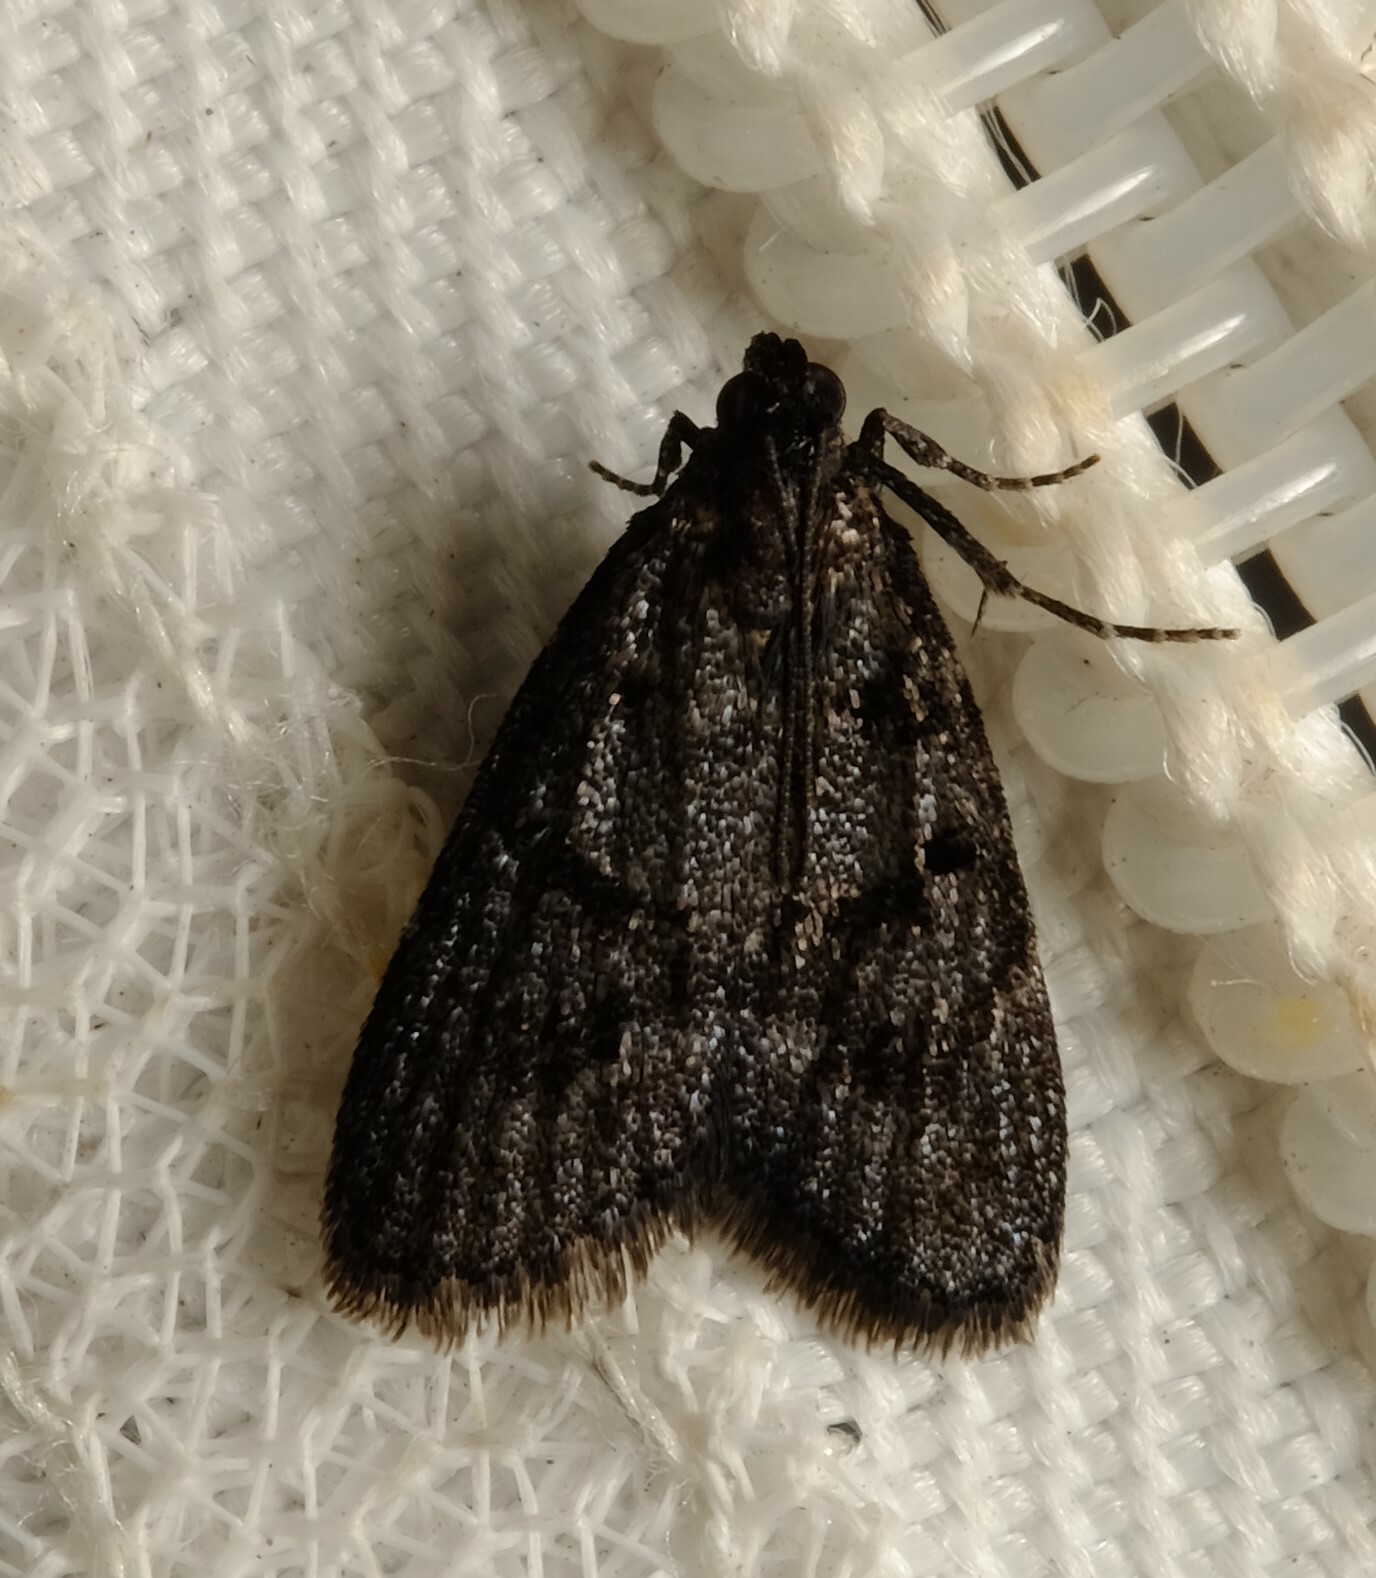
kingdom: Animalia
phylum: Arthropoda
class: Insecta
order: Lepidoptera
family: Pyralidae
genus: Stericta
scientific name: Stericta carbonalis
